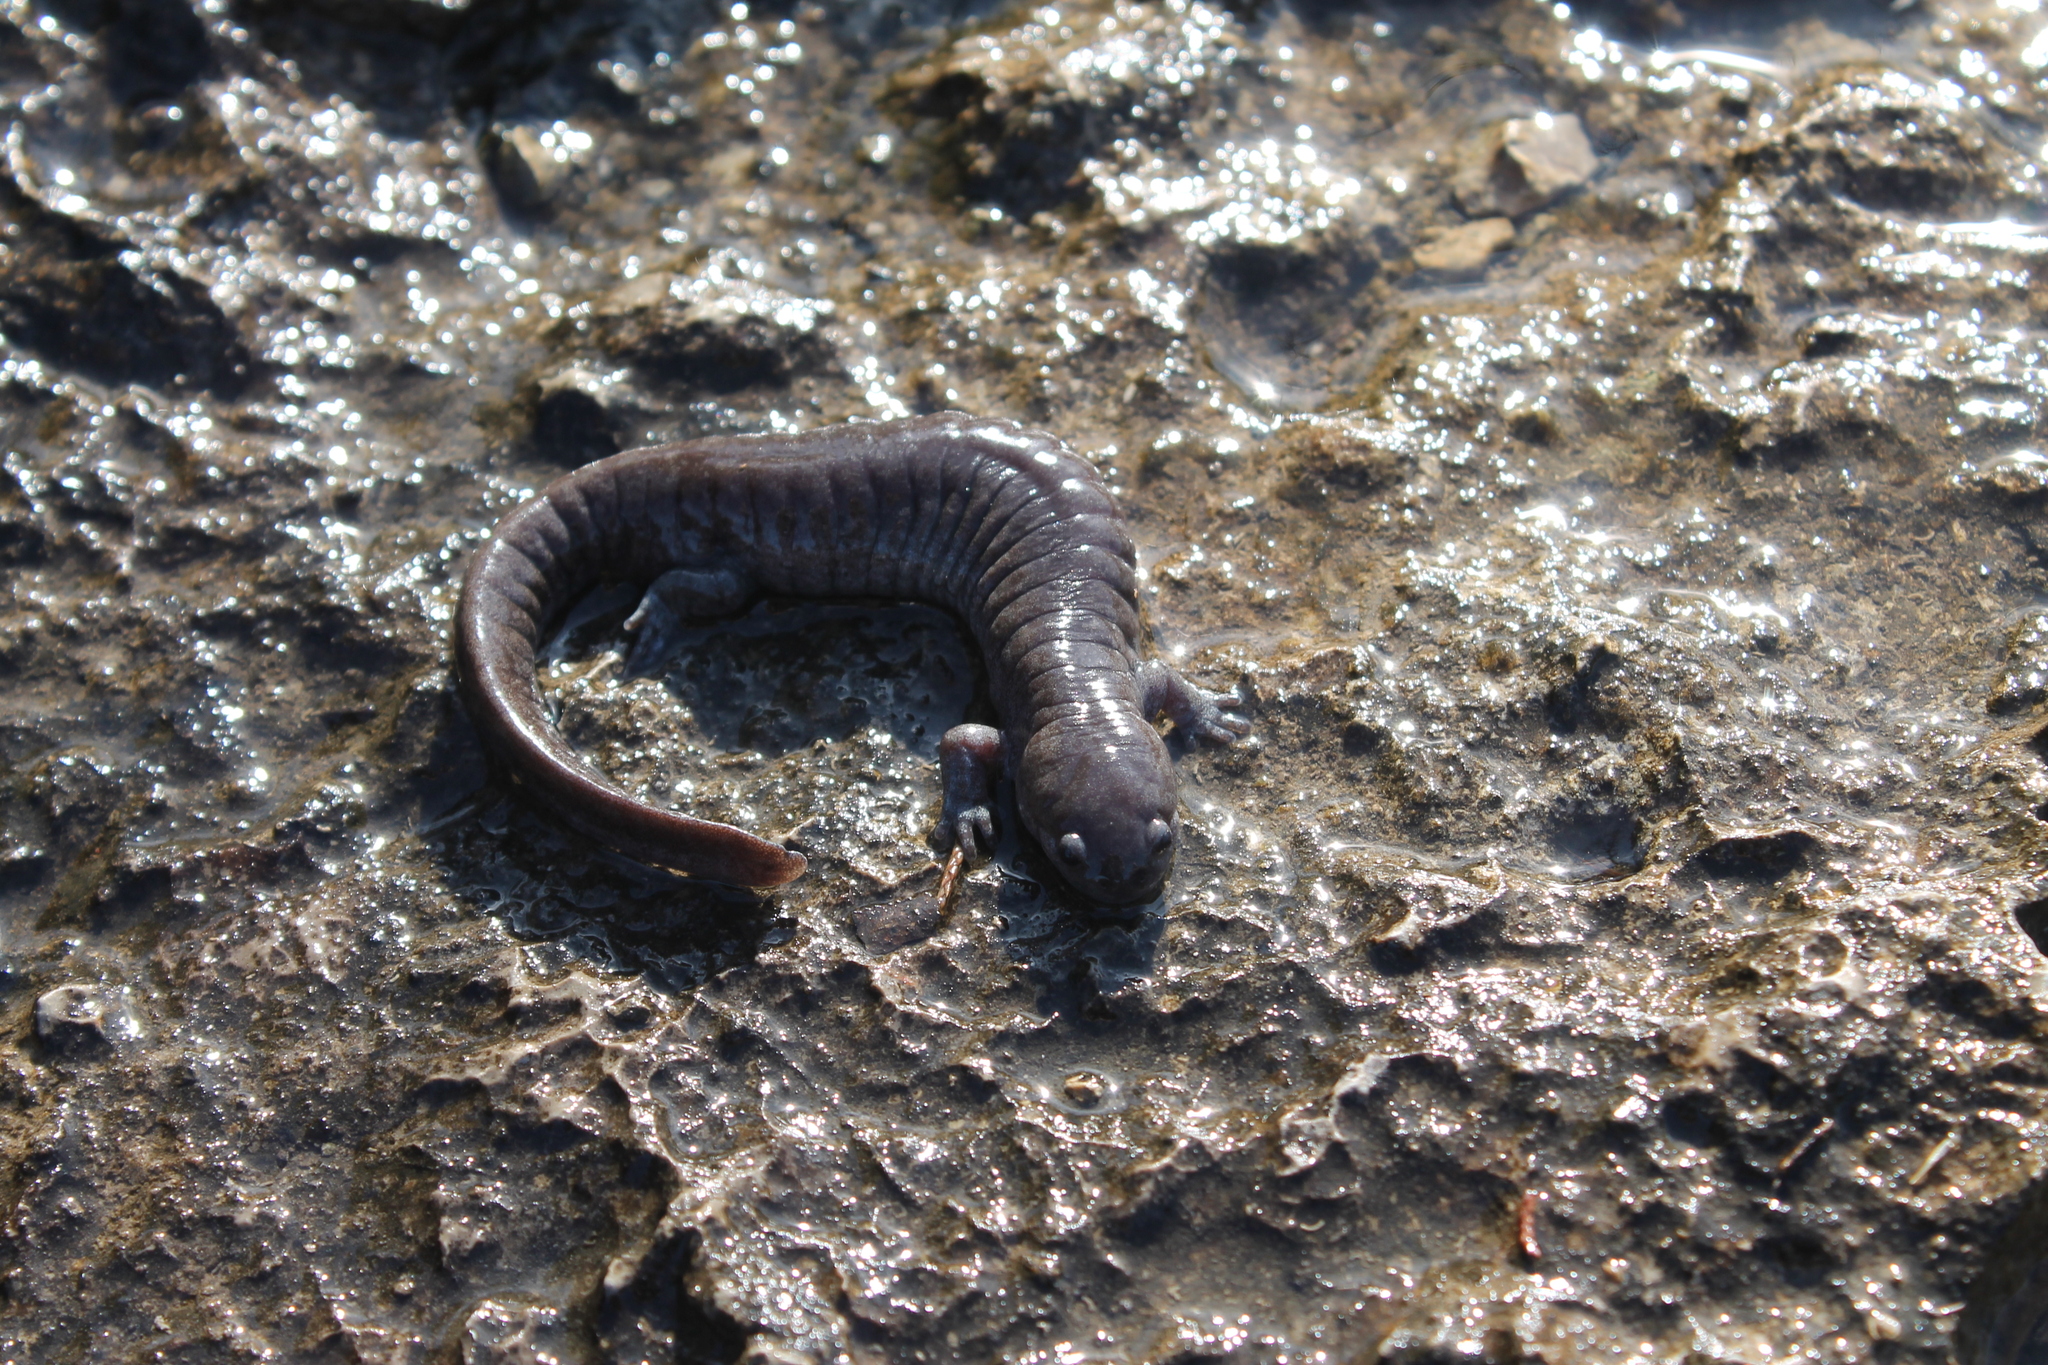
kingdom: Animalia
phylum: Chordata
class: Amphibia
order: Caudata
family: Ambystomatidae
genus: Ambystoma
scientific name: Ambystoma barbouri
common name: Streamside salamander
